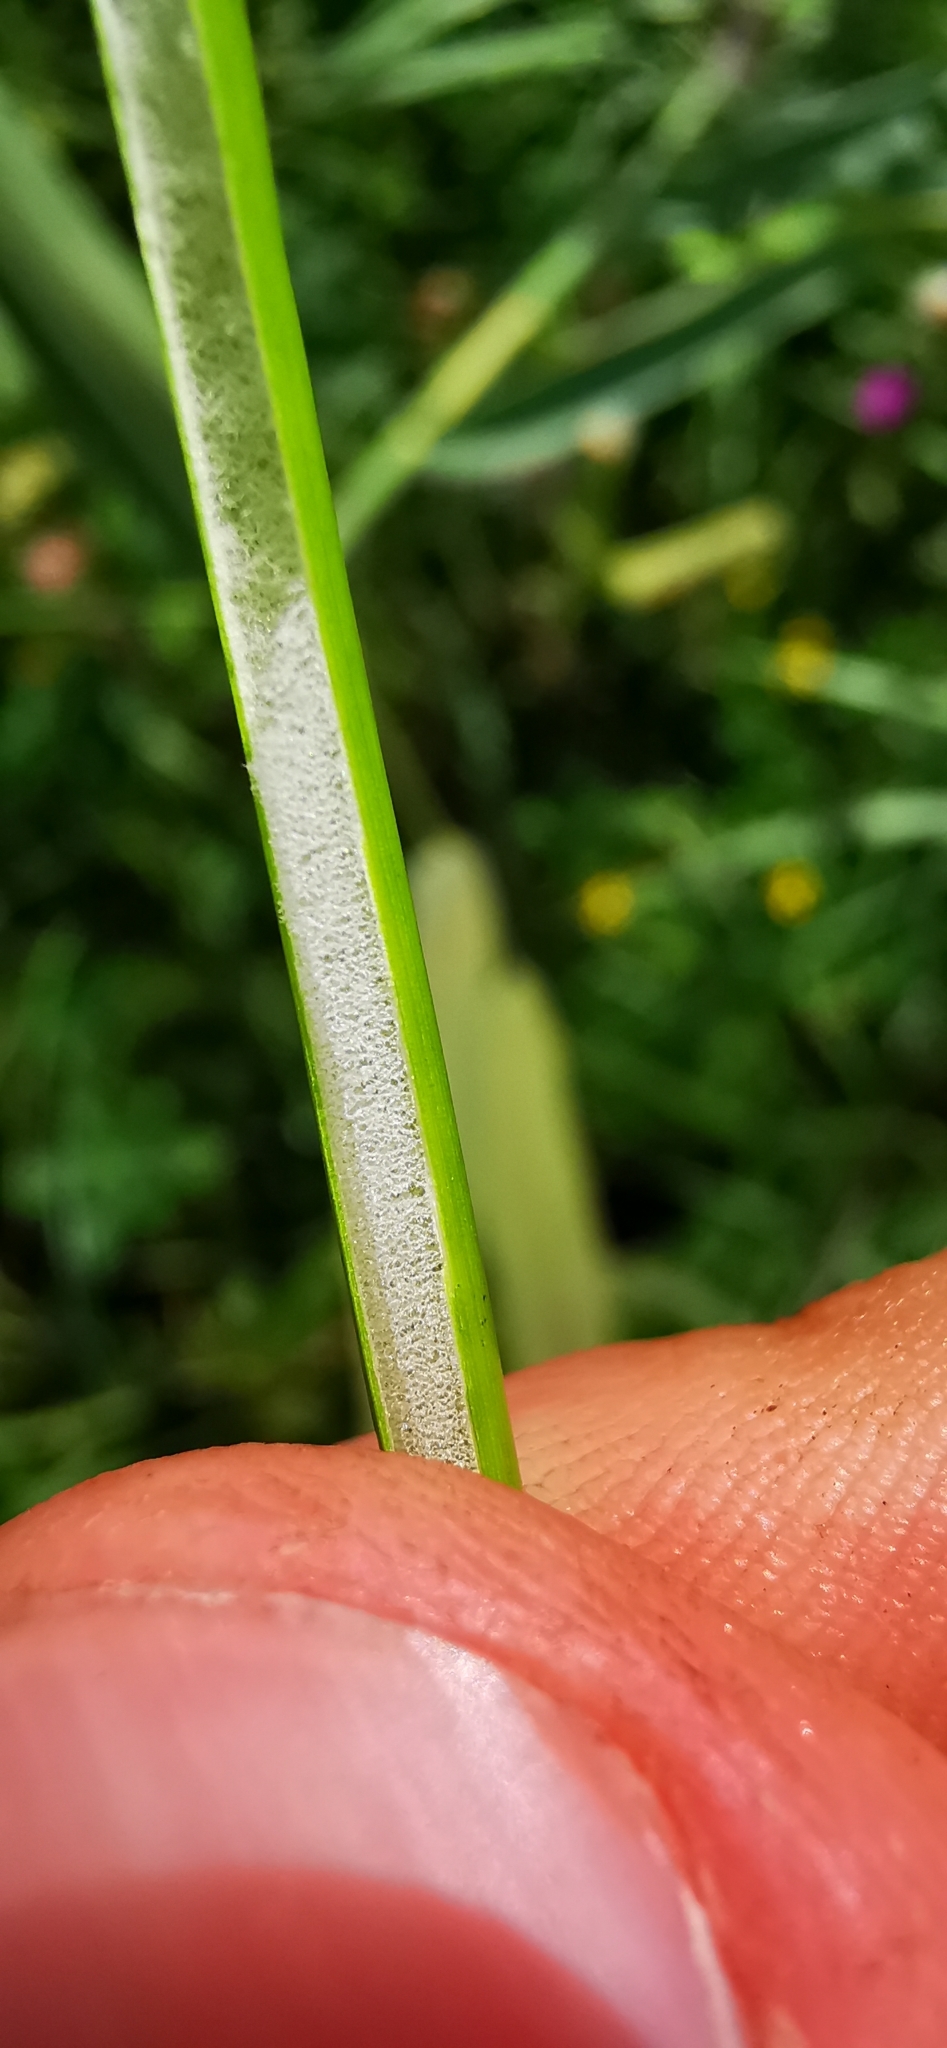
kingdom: Plantae
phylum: Tracheophyta
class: Liliopsida
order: Poales
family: Juncaceae
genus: Juncus
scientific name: Juncus conglomeratus
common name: Compact rush
